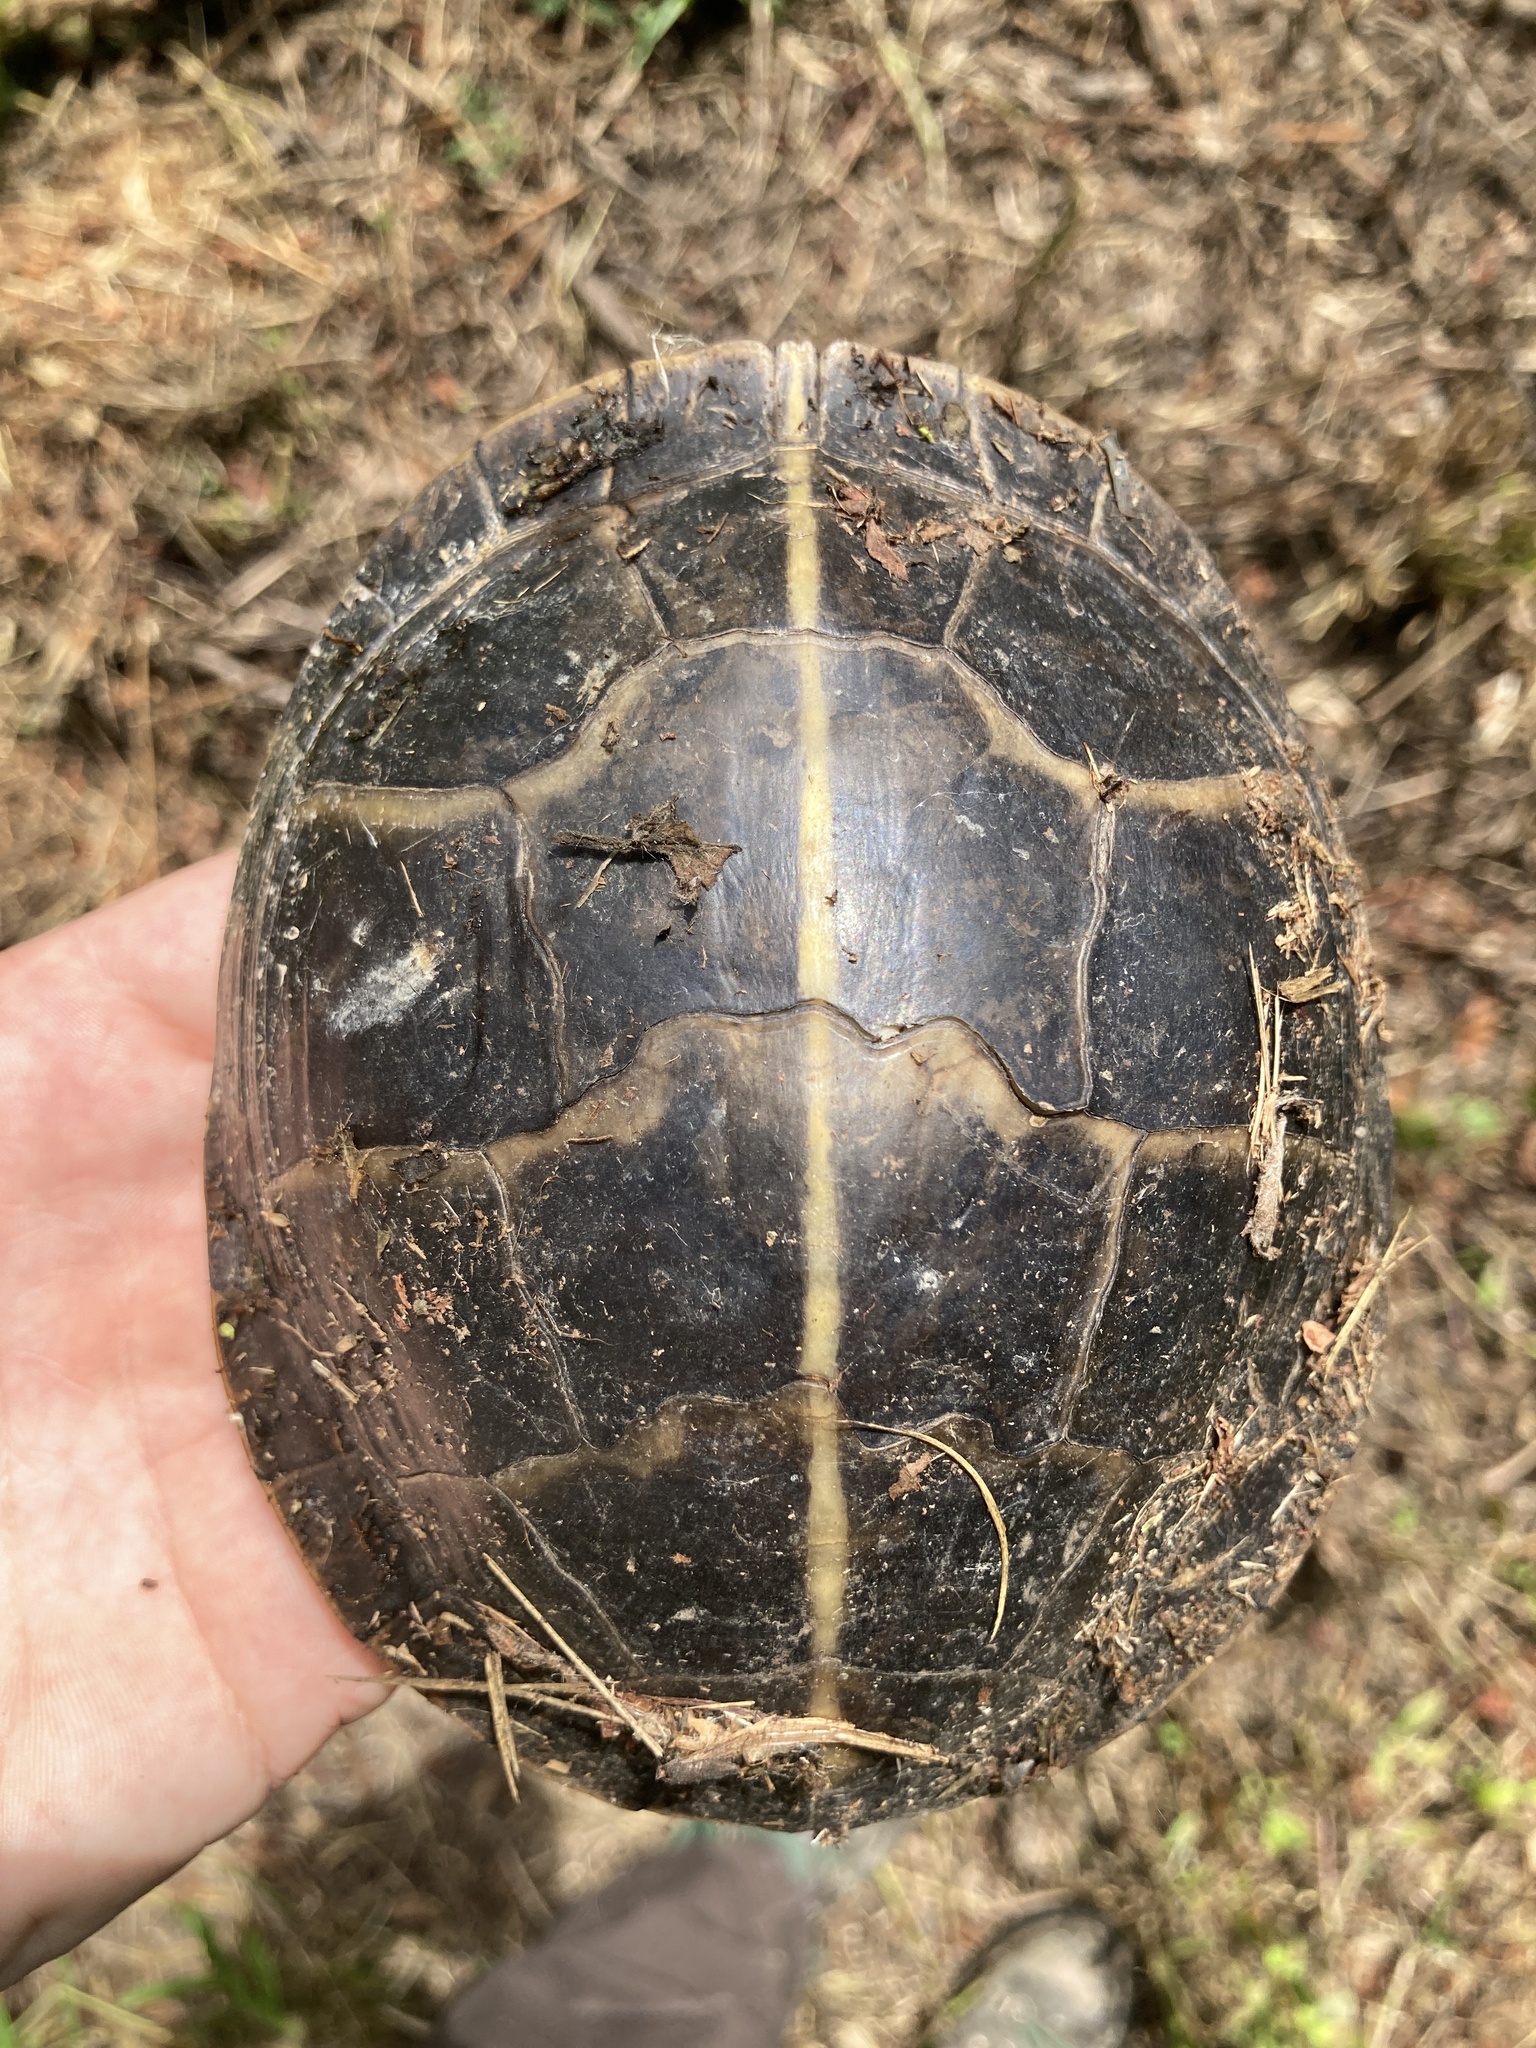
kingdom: Animalia
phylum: Chordata
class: Testudines
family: Emydidae
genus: Chrysemys
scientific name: Chrysemys dorsalis
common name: Southern painted turtle
